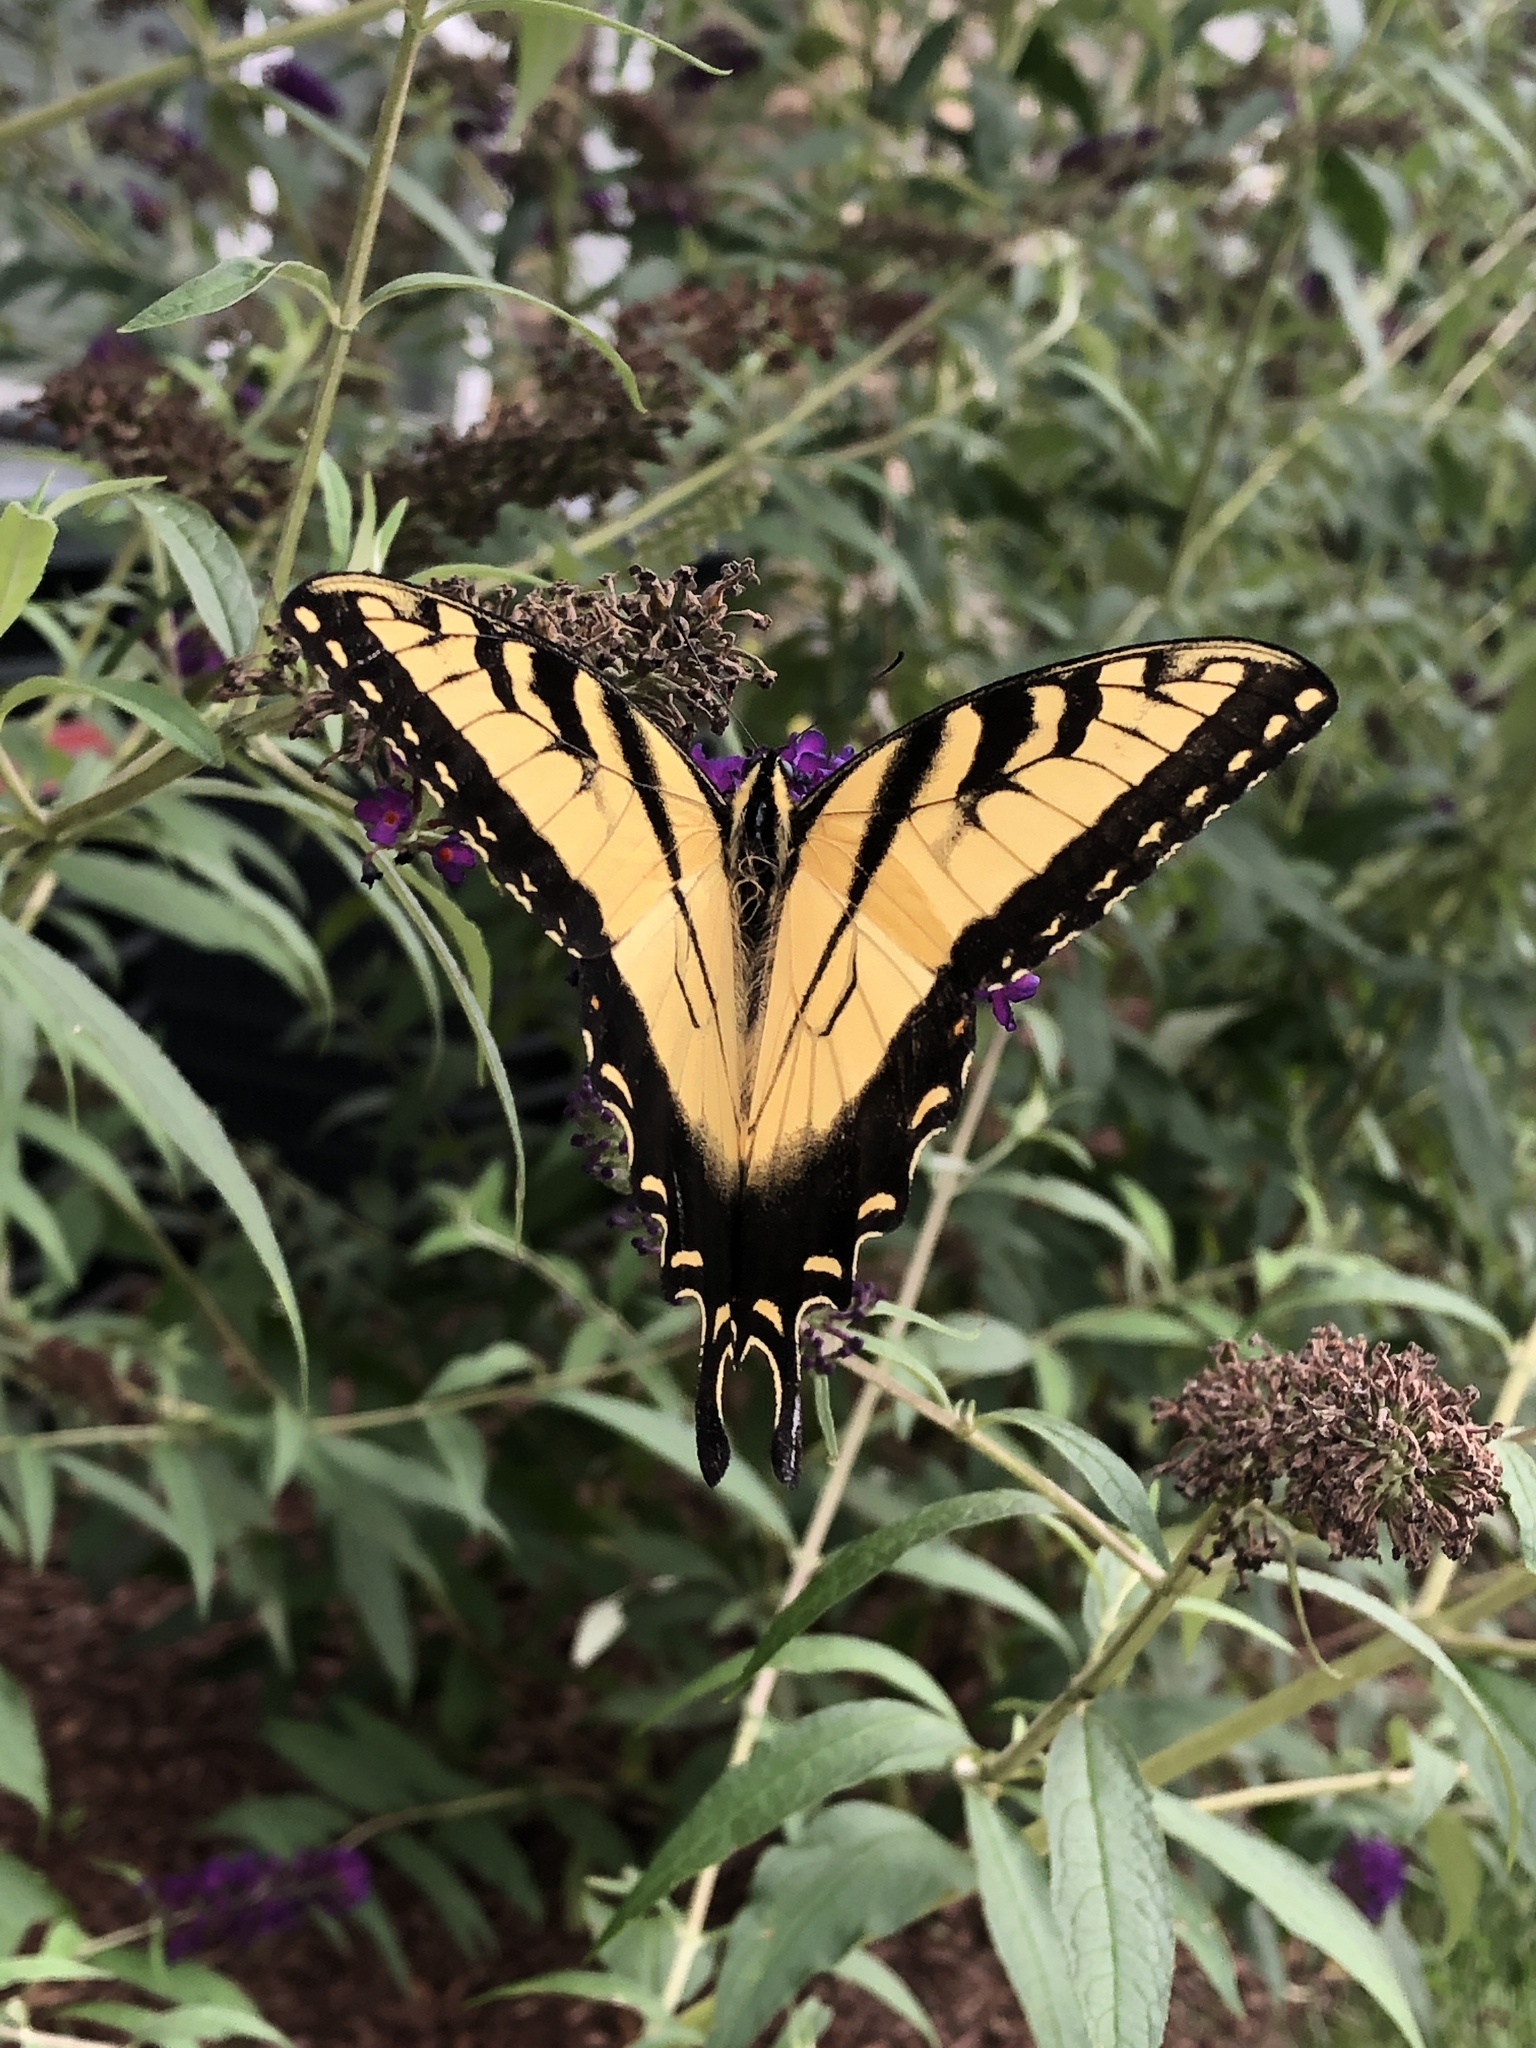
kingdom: Animalia
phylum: Arthropoda
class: Insecta
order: Lepidoptera
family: Papilionidae
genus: Papilio
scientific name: Papilio glaucus
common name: Tiger swallowtail
